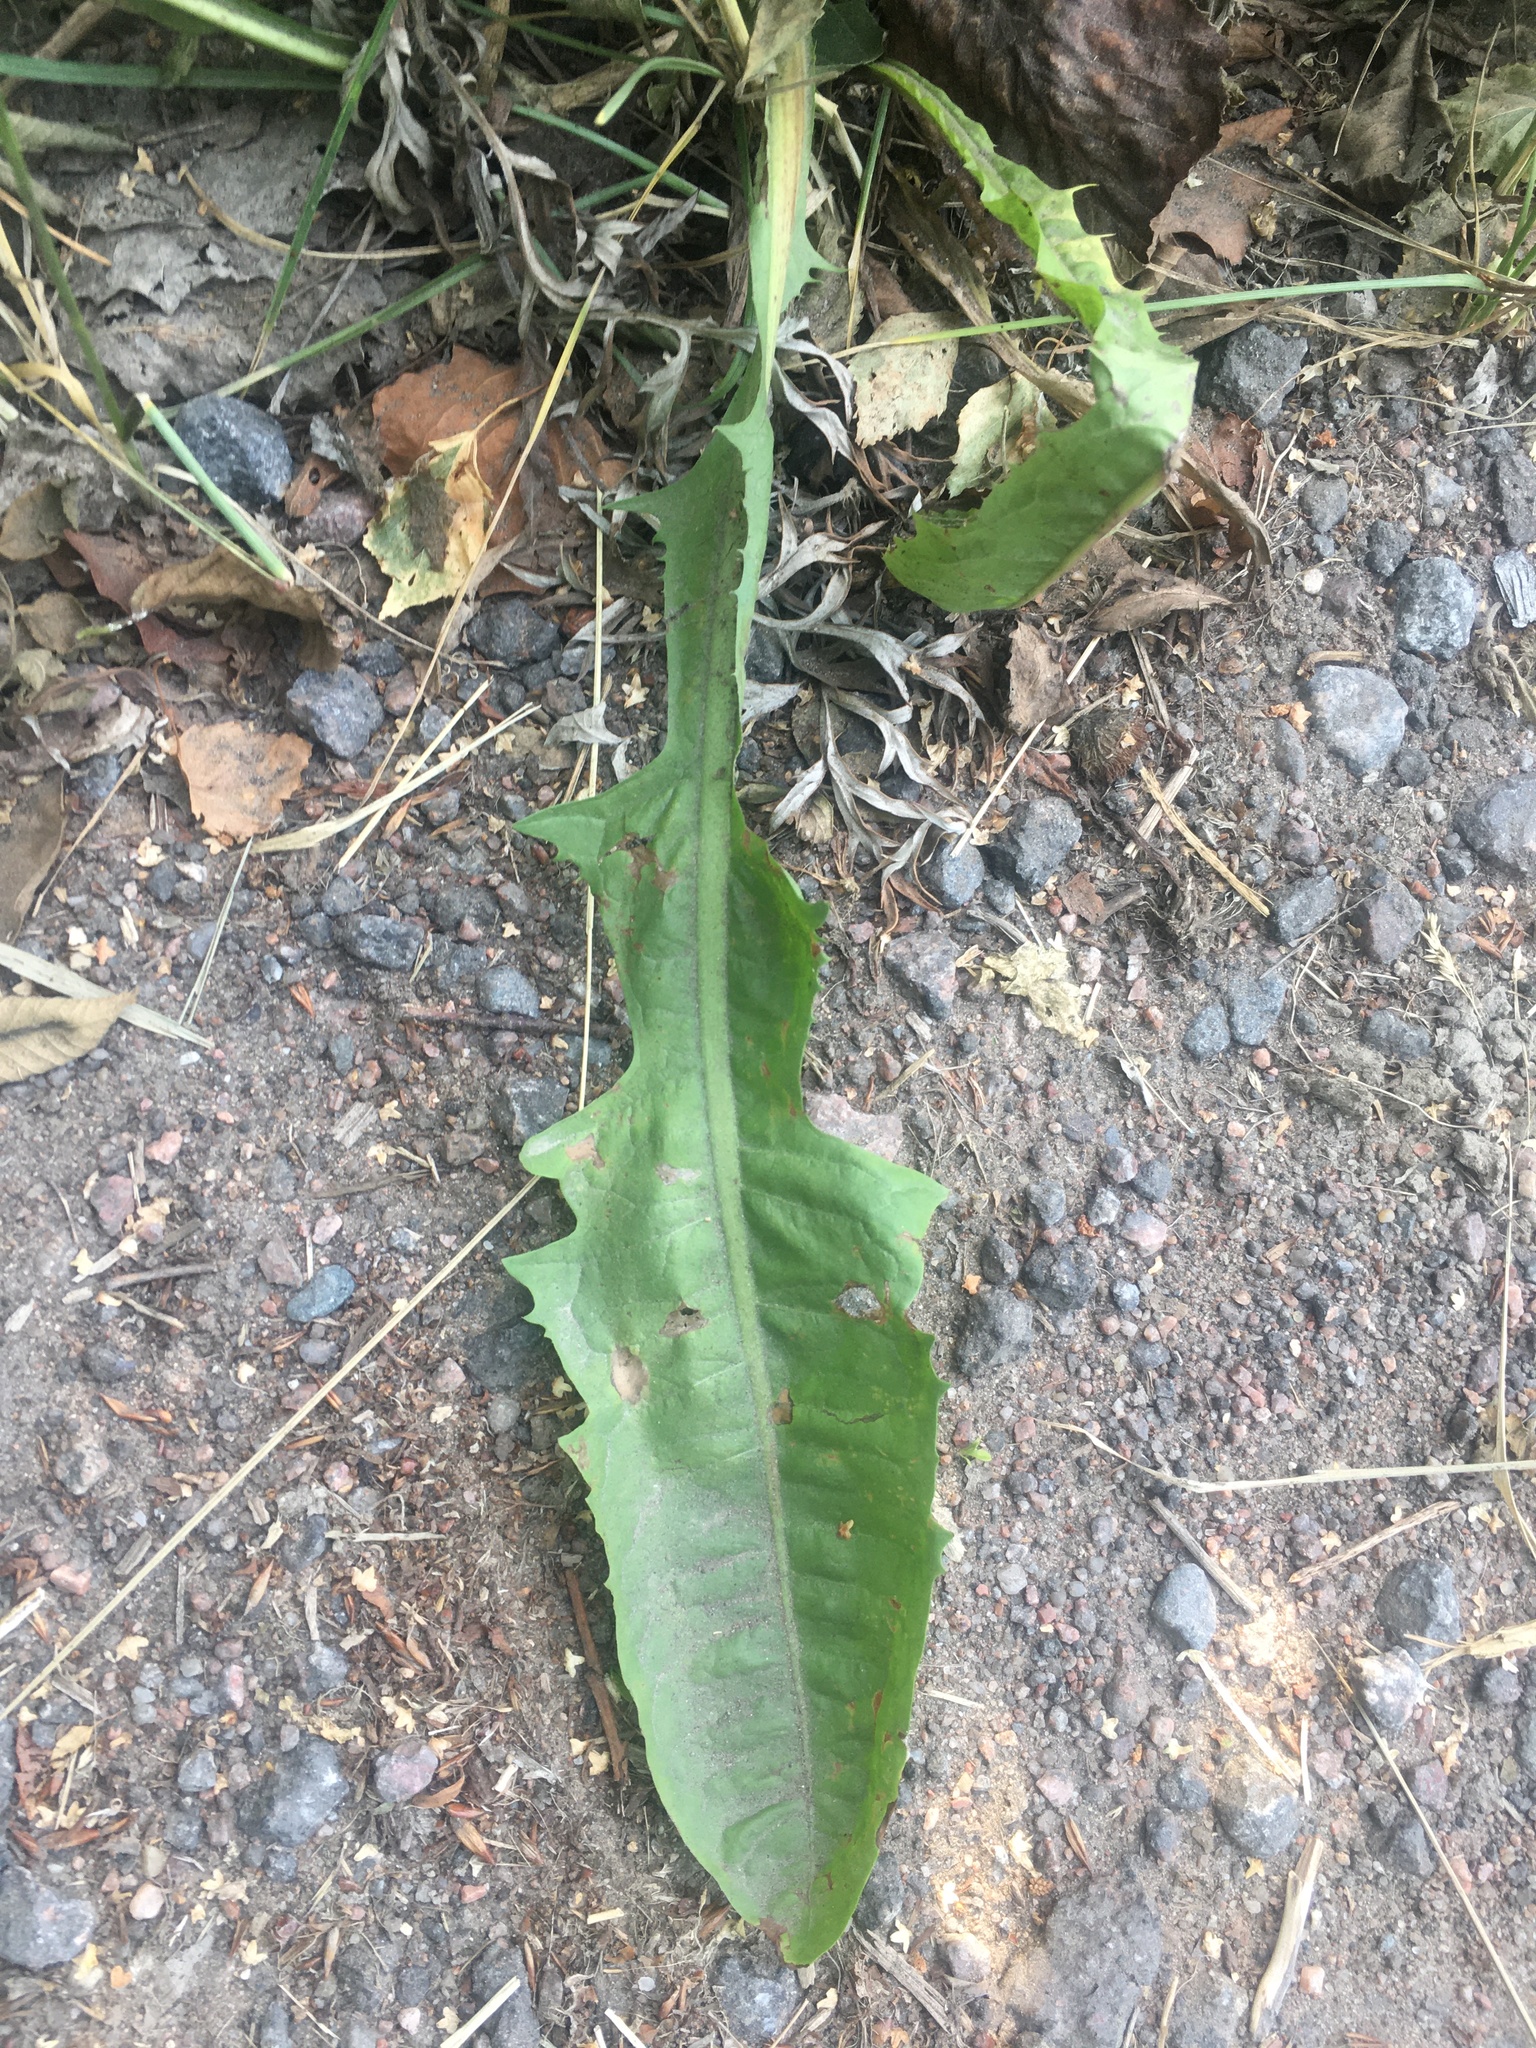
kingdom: Plantae
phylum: Tracheophyta
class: Magnoliopsida
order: Asterales
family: Asteraceae
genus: Taraxacum
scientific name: Taraxacum officinale
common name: Common dandelion
